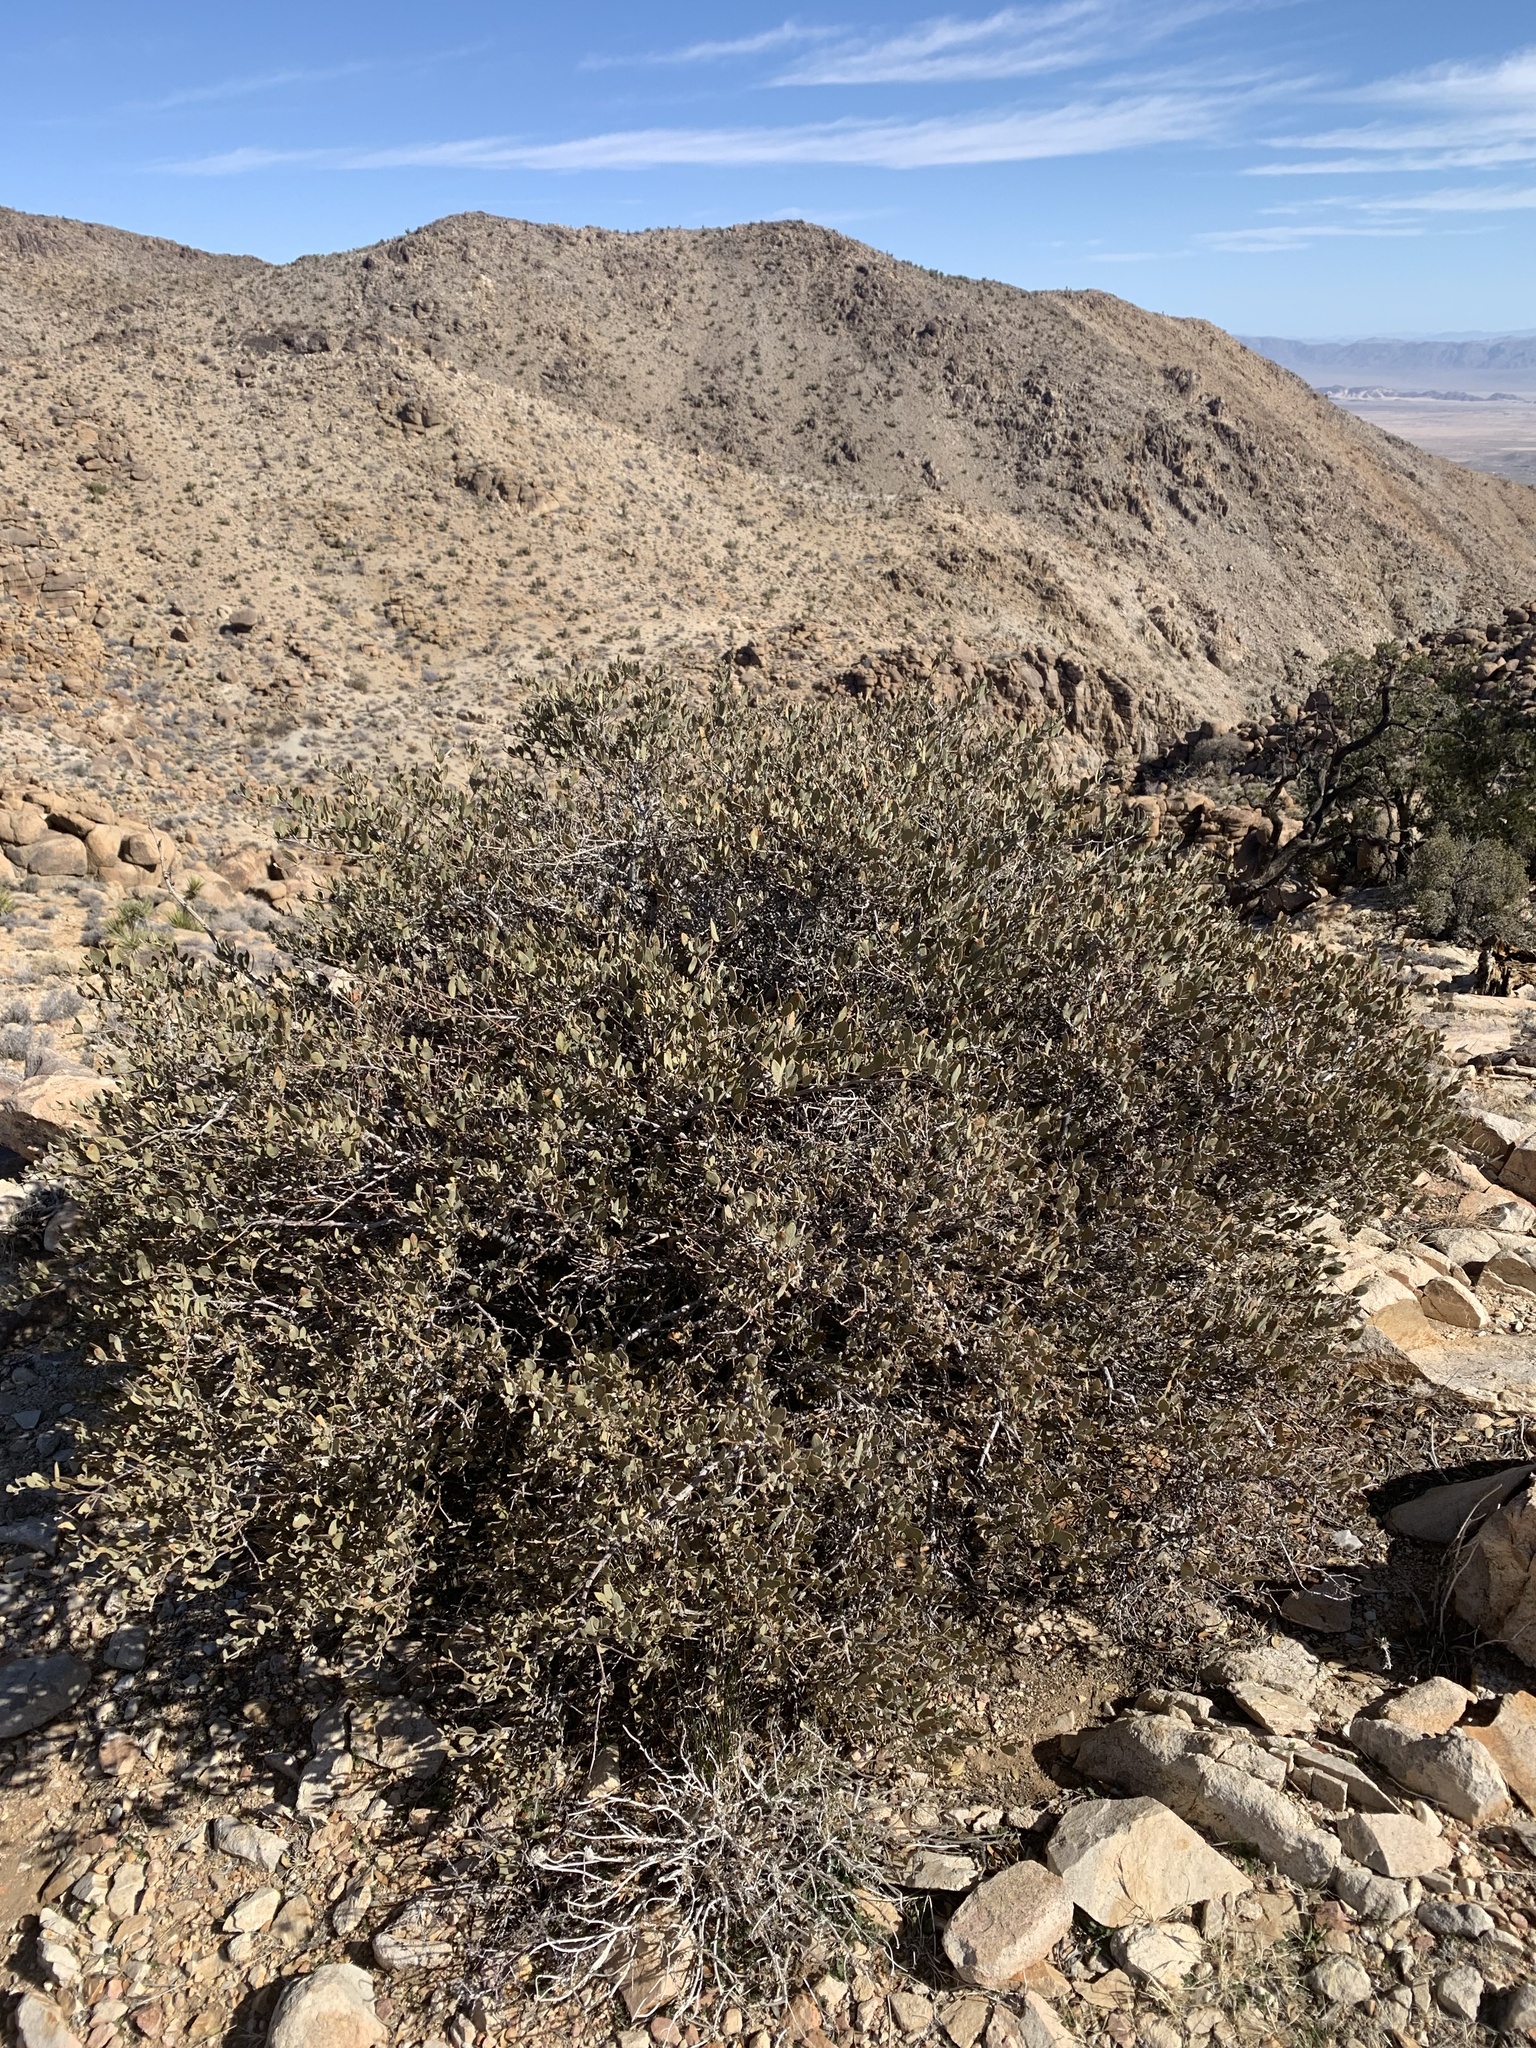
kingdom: Plantae
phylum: Tracheophyta
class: Magnoliopsida
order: Caryophyllales
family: Simmondsiaceae
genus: Simmondsia
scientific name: Simmondsia chinensis
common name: Jojoba
